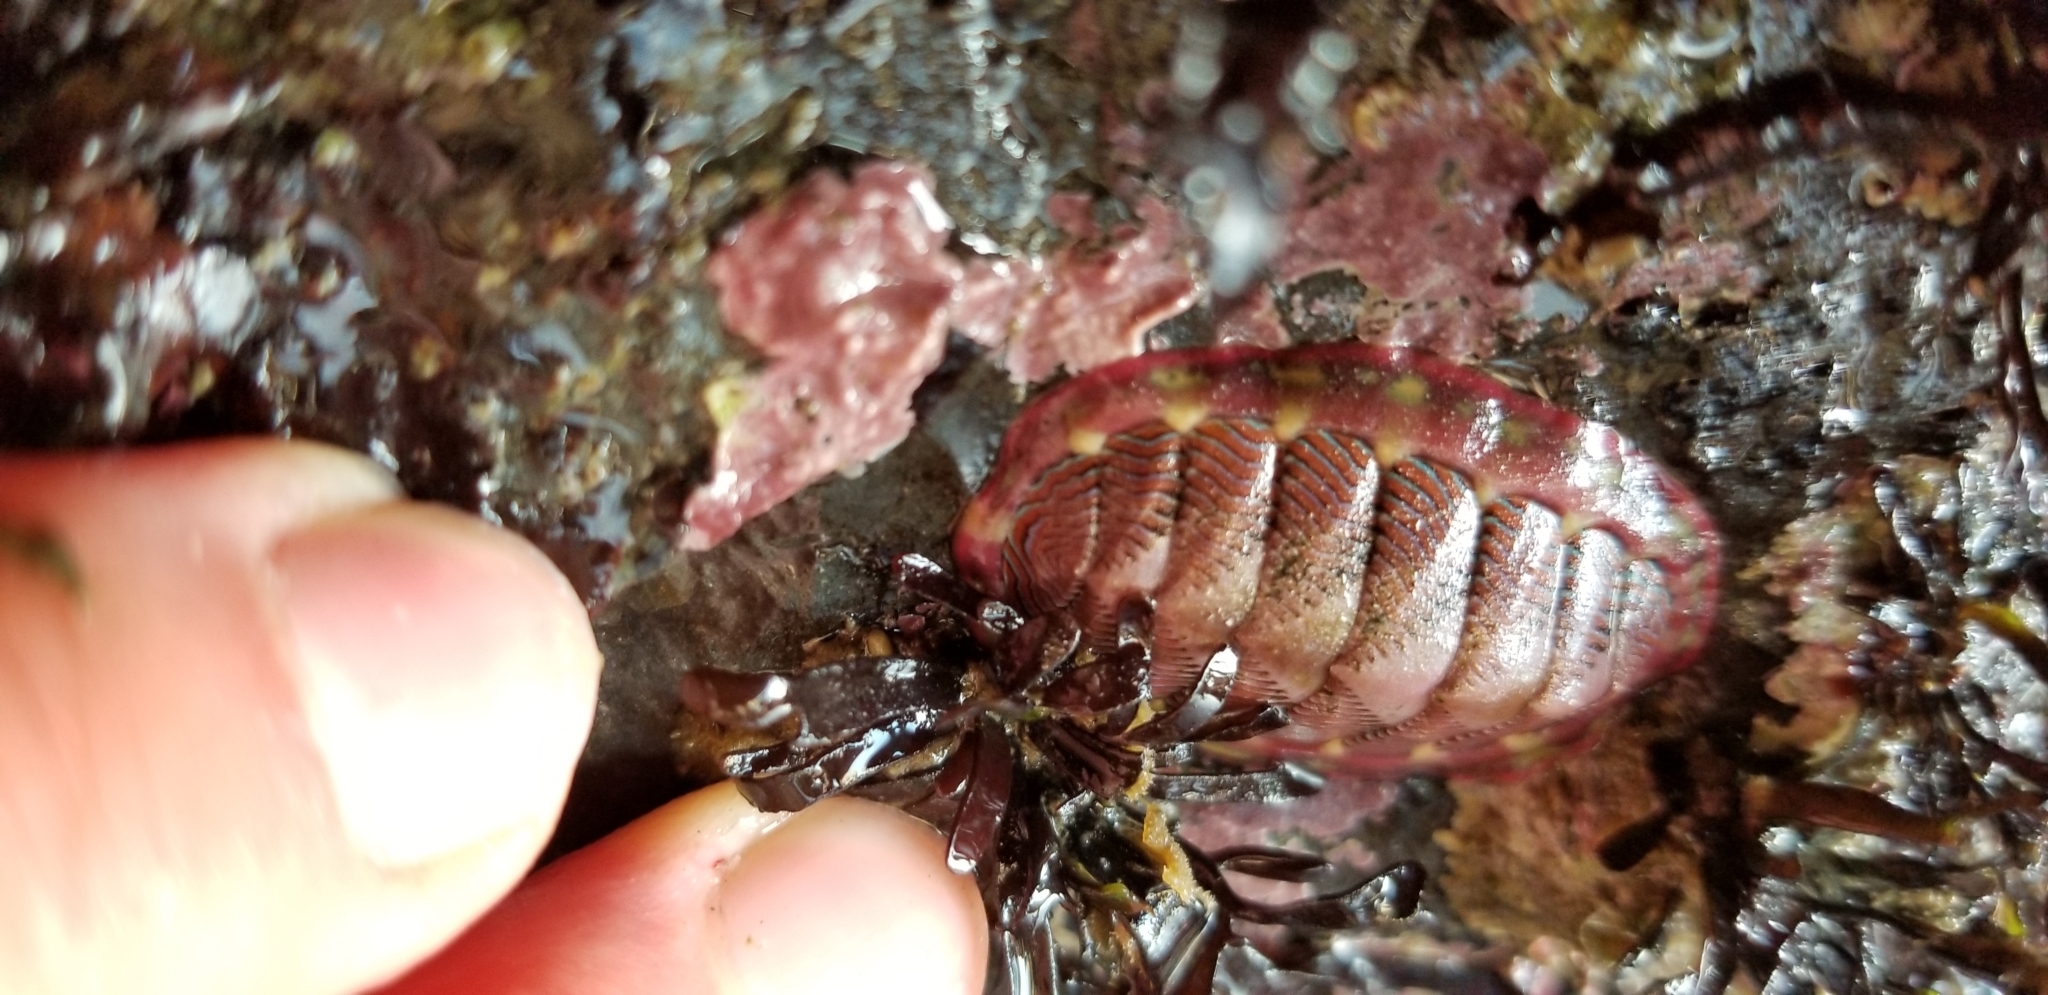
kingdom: Animalia
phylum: Mollusca
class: Polyplacophora
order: Chitonida
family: Tonicellidae
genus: Tonicella
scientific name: Tonicella lineata
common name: Lined chiton
